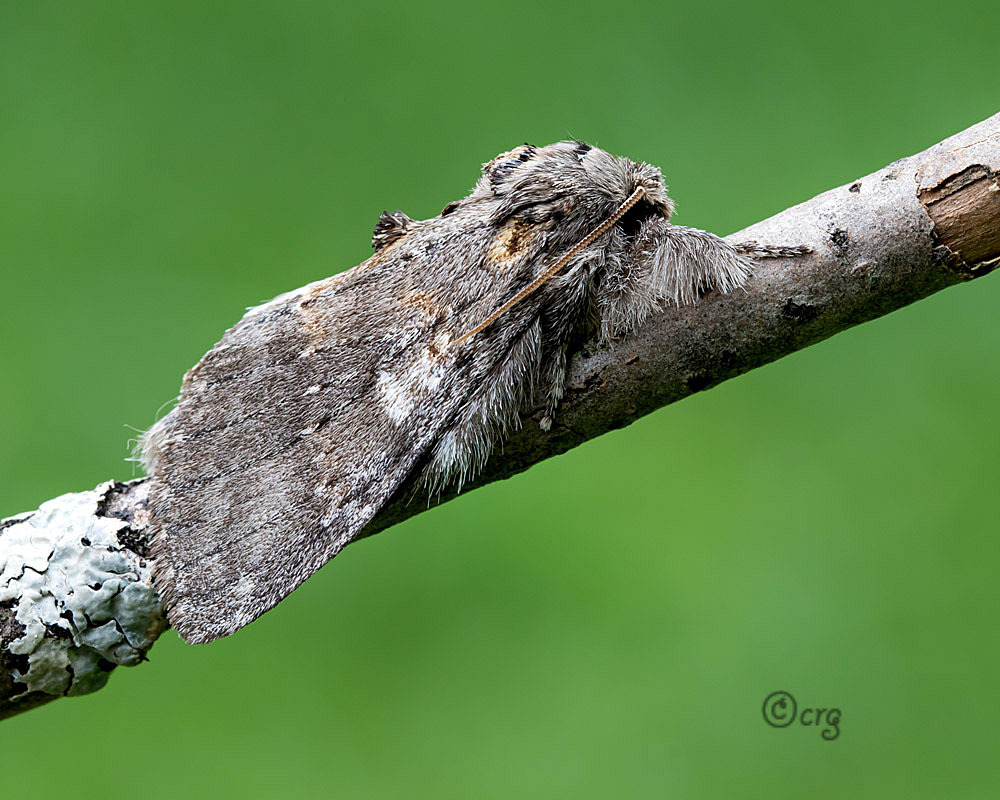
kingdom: Animalia
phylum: Arthropoda
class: Insecta
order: Lepidoptera
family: Notodontidae
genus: Peridea
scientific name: Peridea angulosa
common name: Angulose prominent
